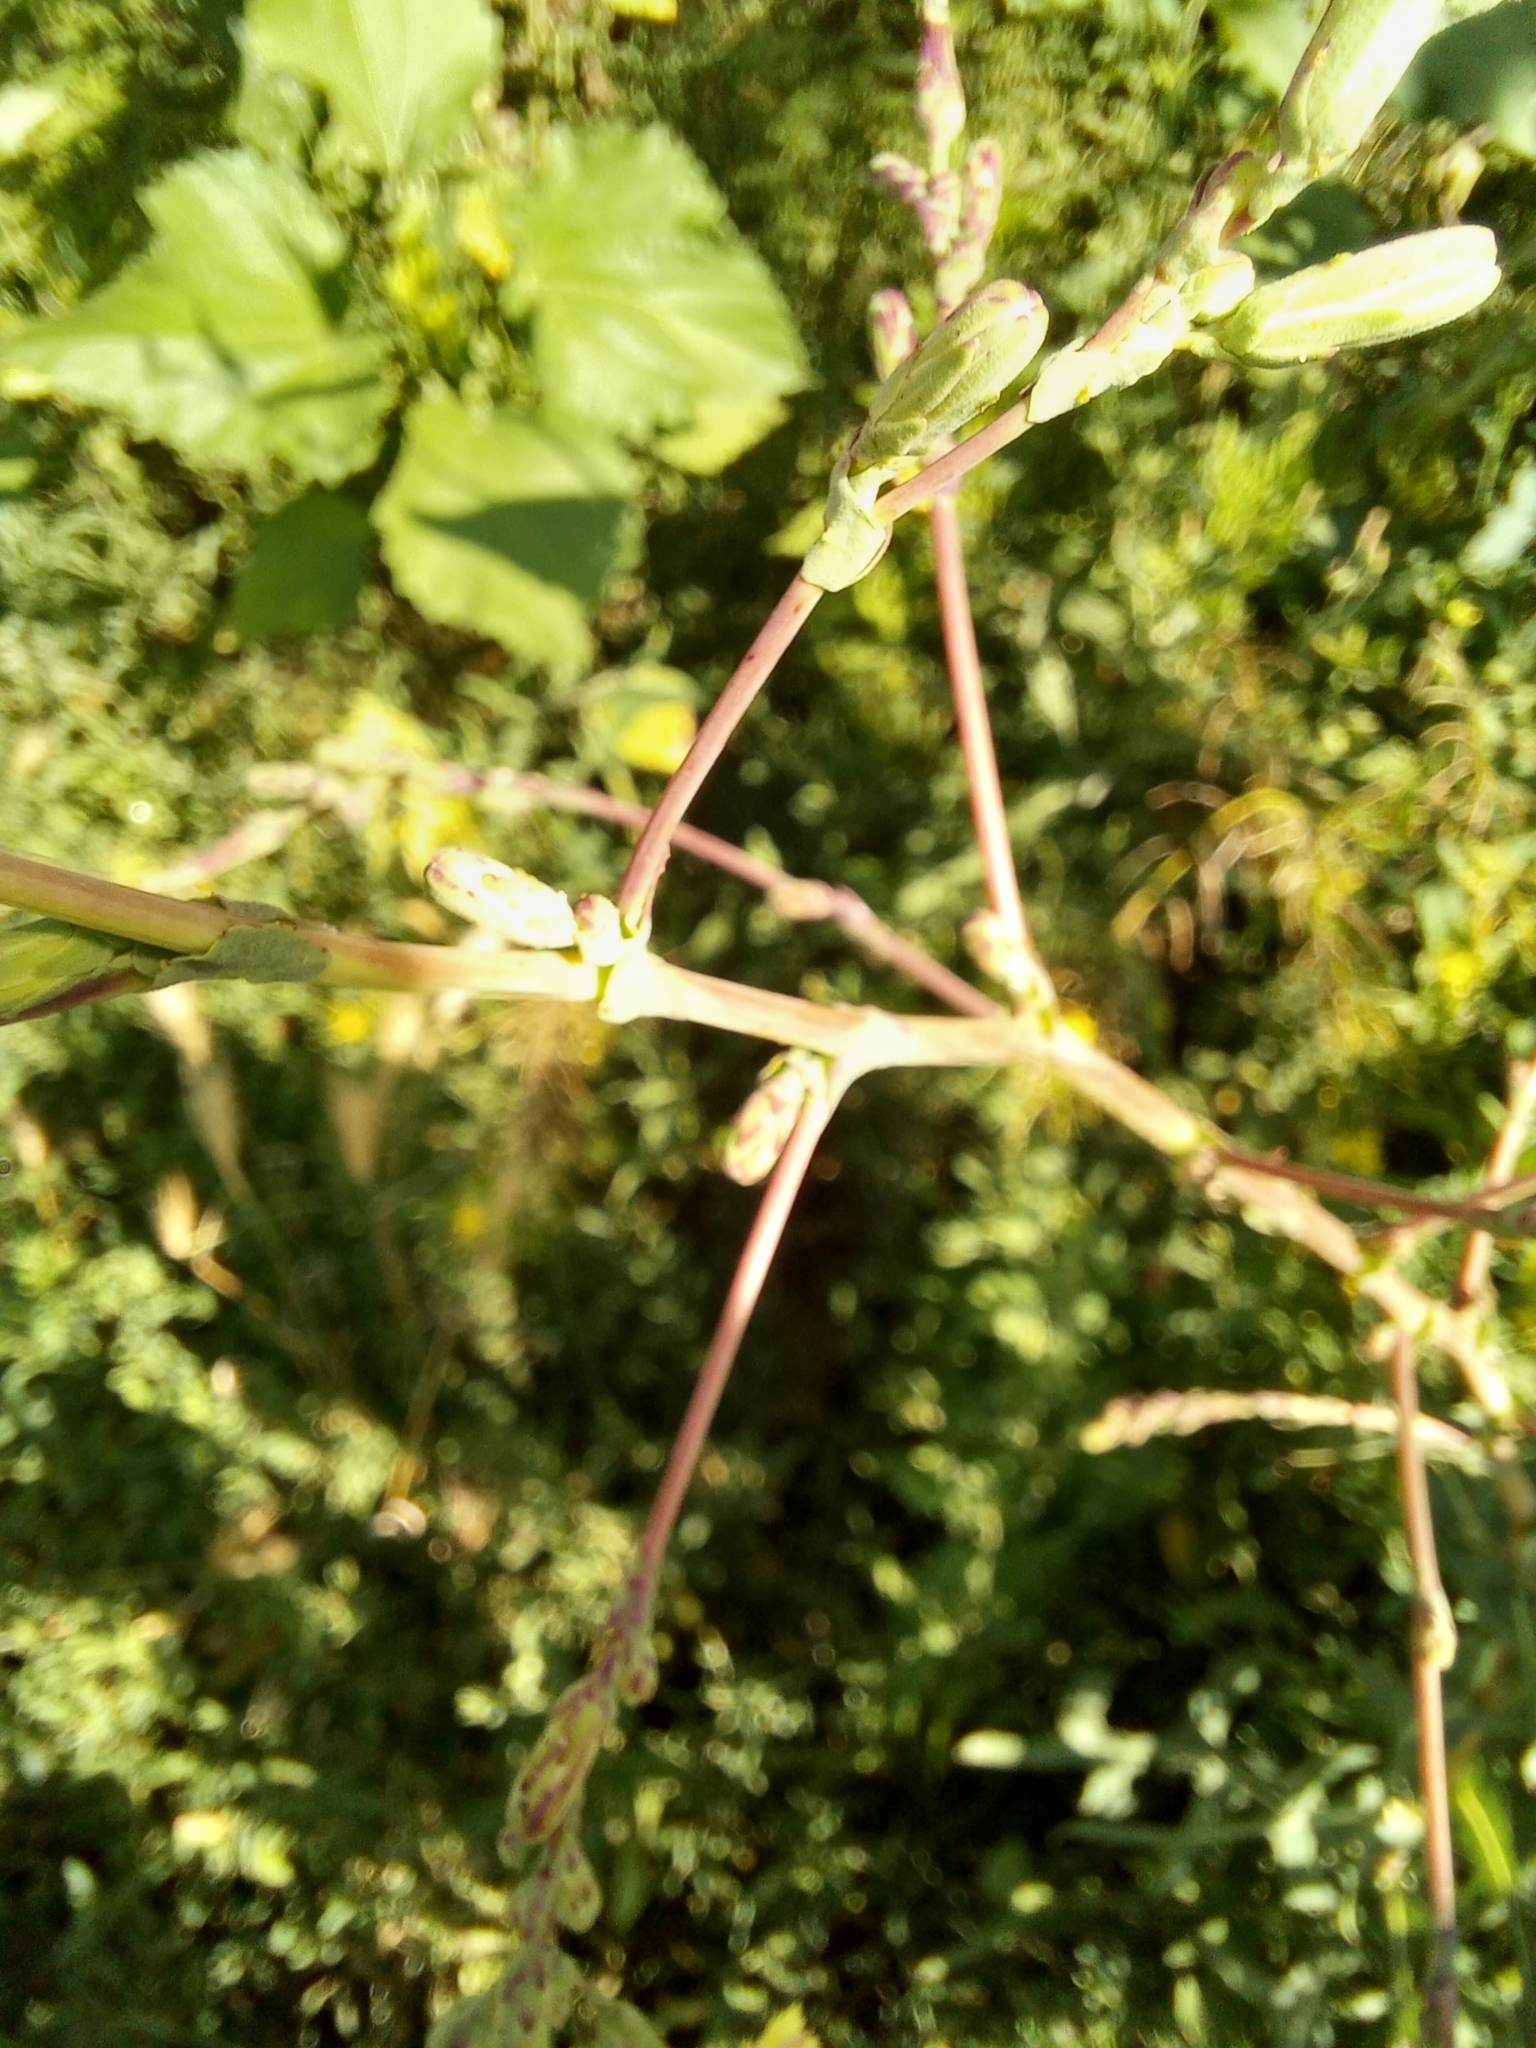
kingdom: Plantae
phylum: Tracheophyta
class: Magnoliopsida
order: Asterales
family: Asteraceae
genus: Lactuca
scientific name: Lactuca serriola
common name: Prickly lettuce
